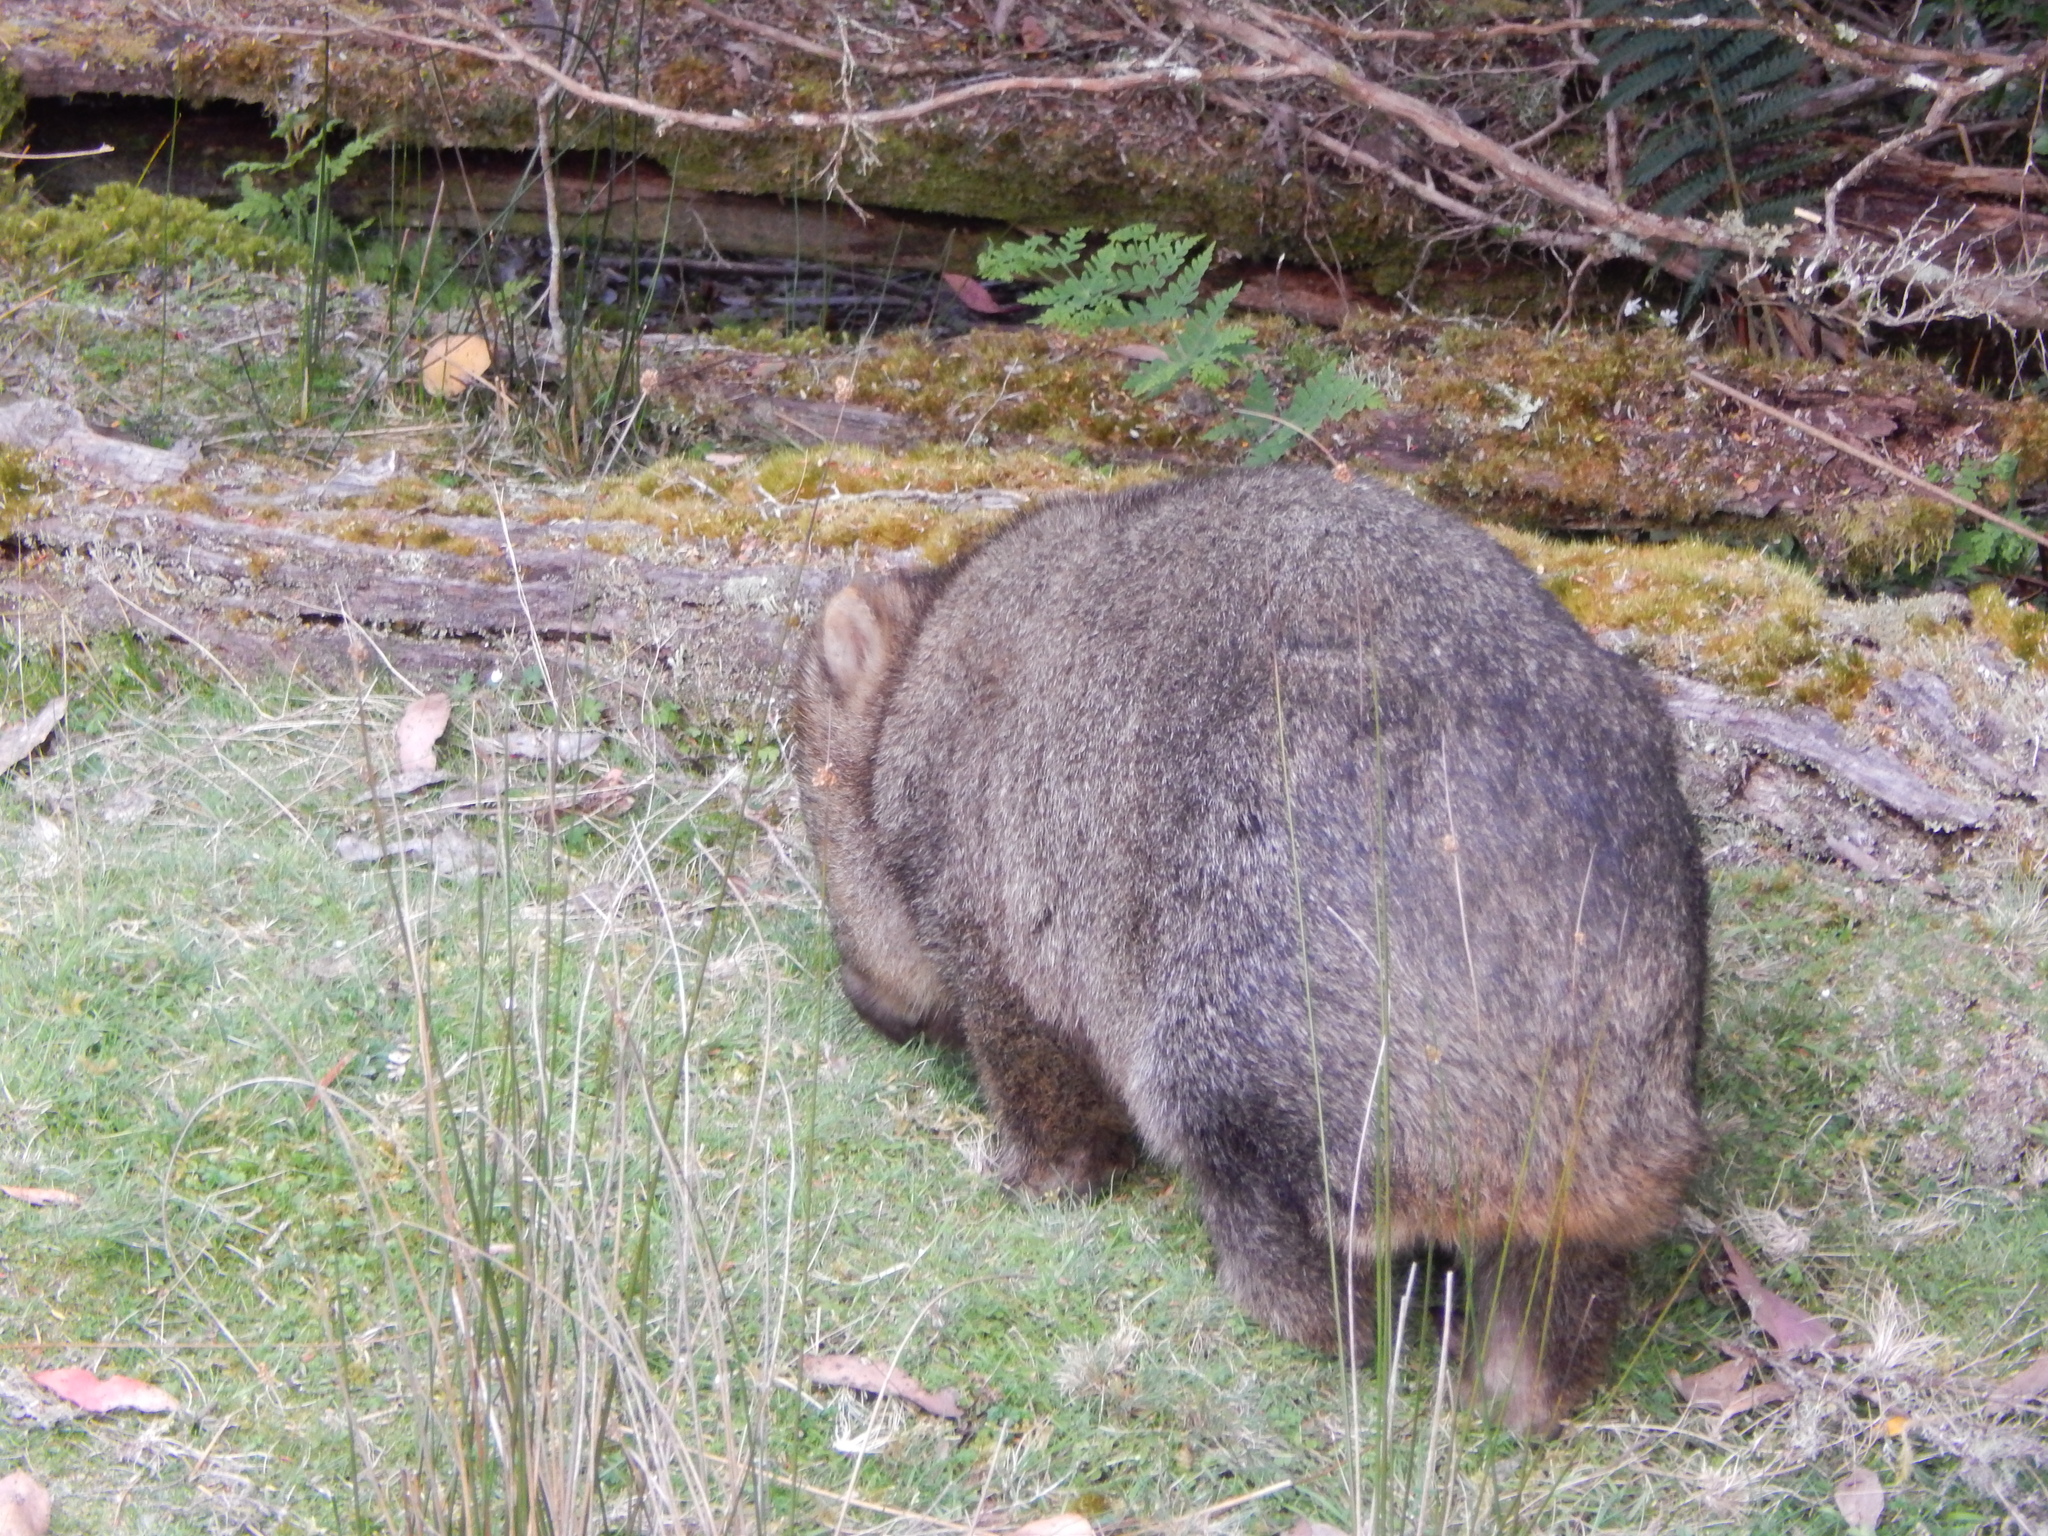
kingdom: Animalia
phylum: Chordata
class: Mammalia
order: Diprotodontia
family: Vombatidae
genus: Vombatus
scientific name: Vombatus ursinus
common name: Common wombat
